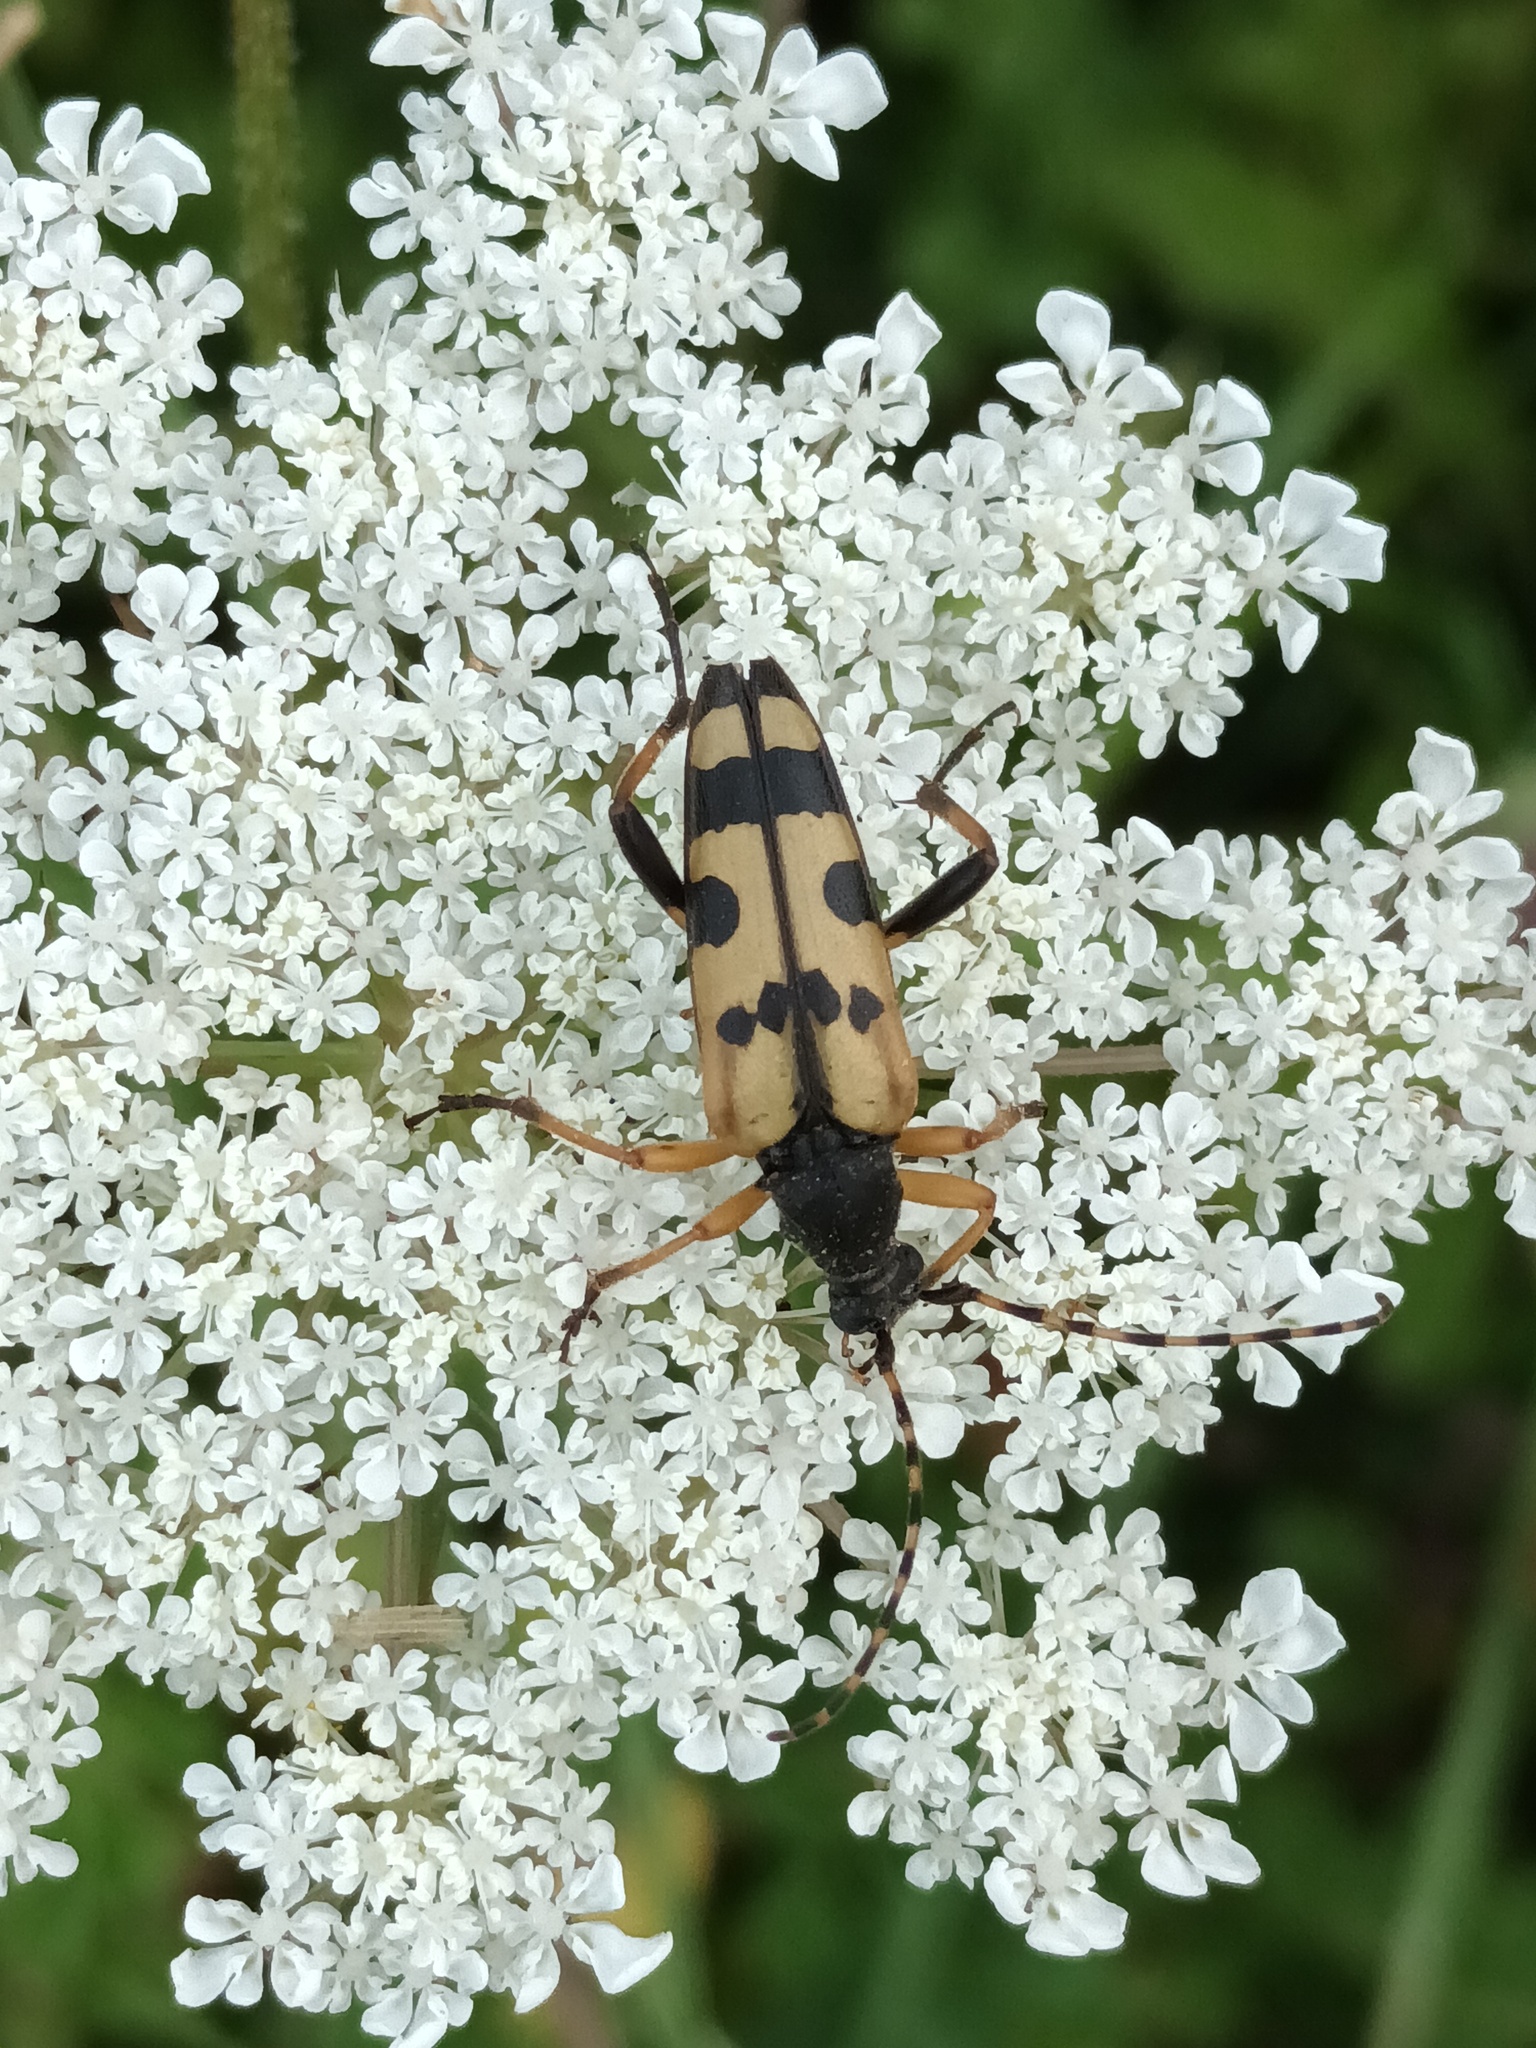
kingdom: Animalia
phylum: Arthropoda
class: Insecta
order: Coleoptera
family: Cerambycidae
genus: Rutpela
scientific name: Rutpela maculata
